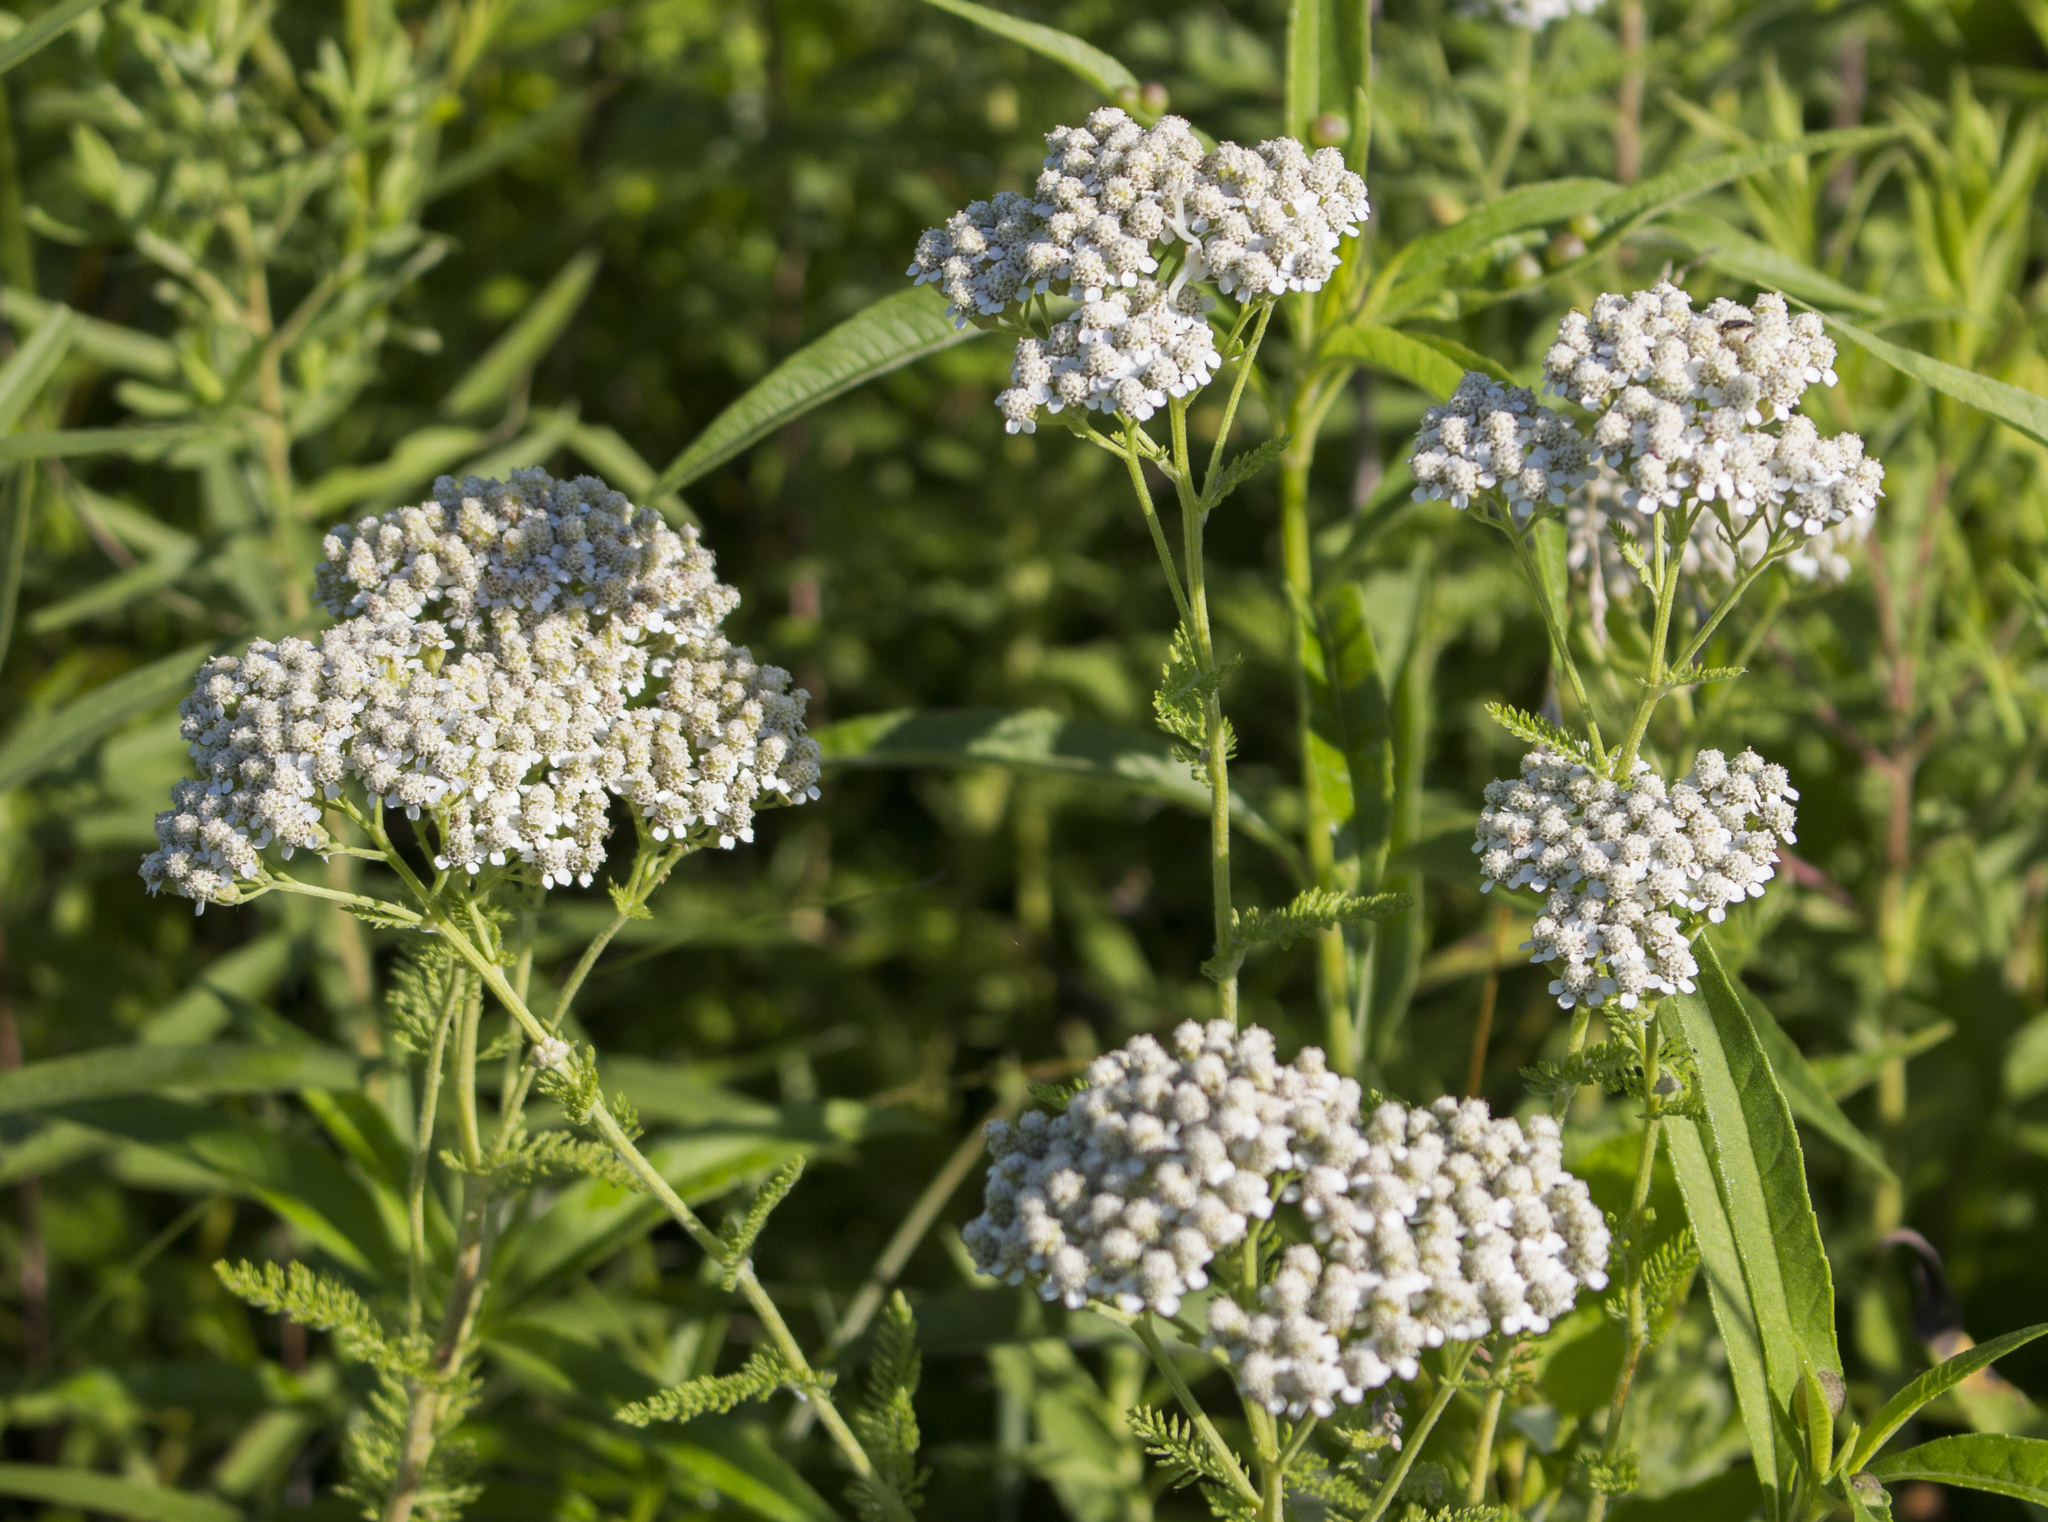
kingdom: Plantae
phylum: Tracheophyta
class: Magnoliopsida
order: Asterales
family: Asteraceae
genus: Achillea
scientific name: Achillea millefolium
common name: Yarrow
